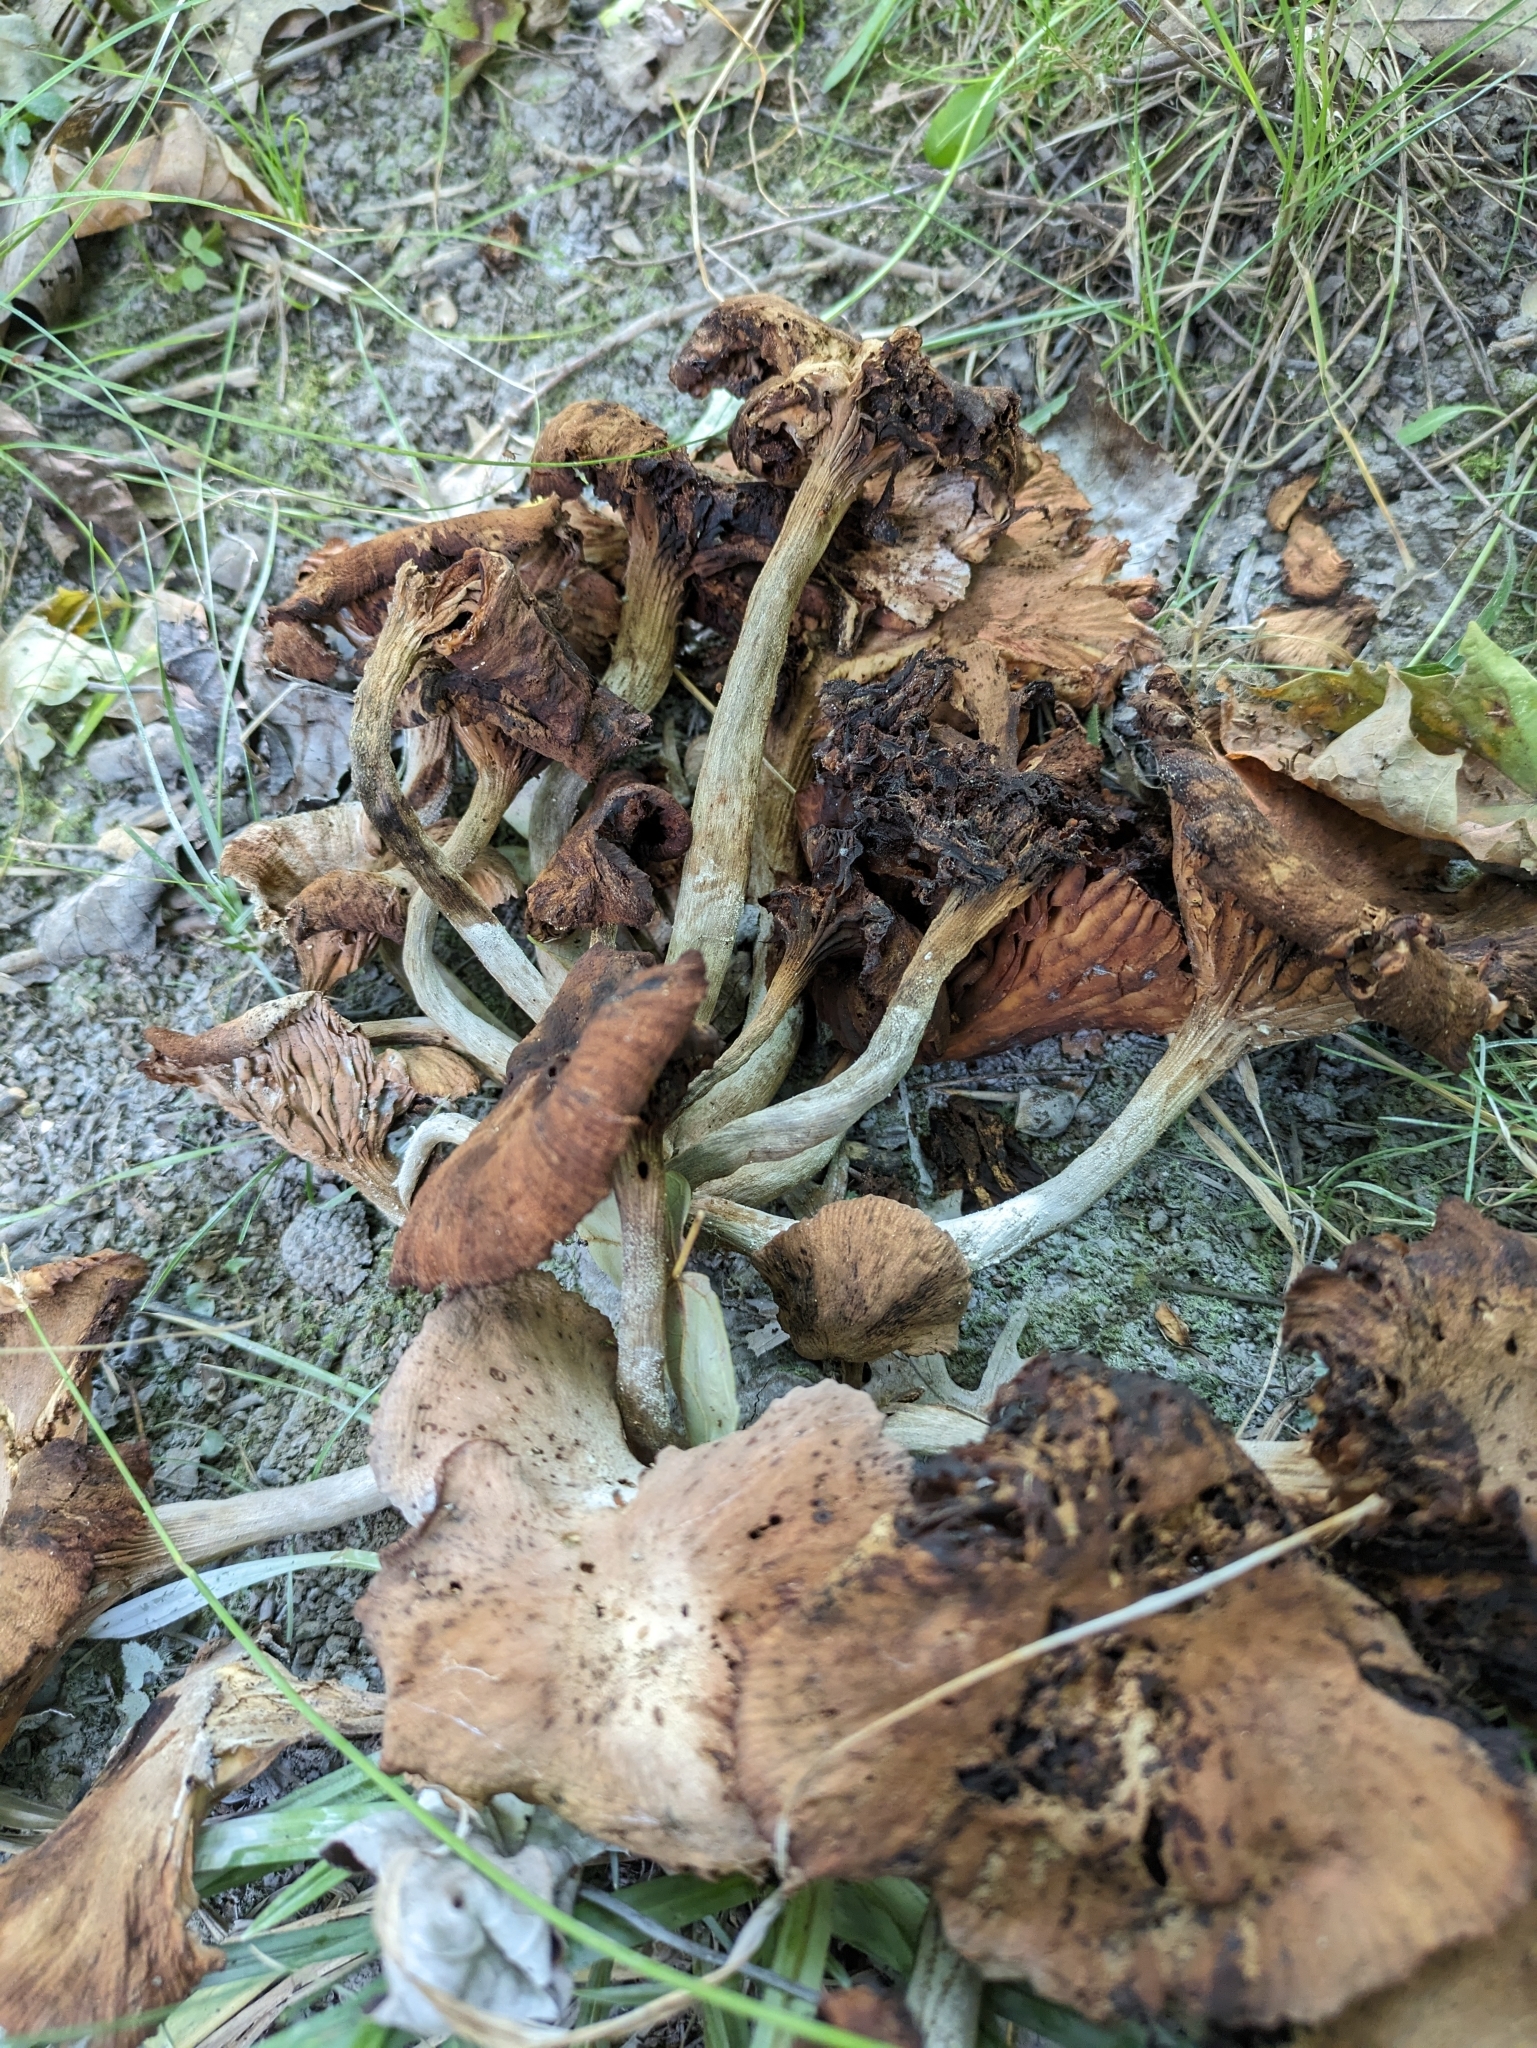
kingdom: Fungi
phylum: Basidiomycota
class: Agaricomycetes
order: Agaricales
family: Physalacriaceae
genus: Desarmillaria
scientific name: Desarmillaria caespitosa
